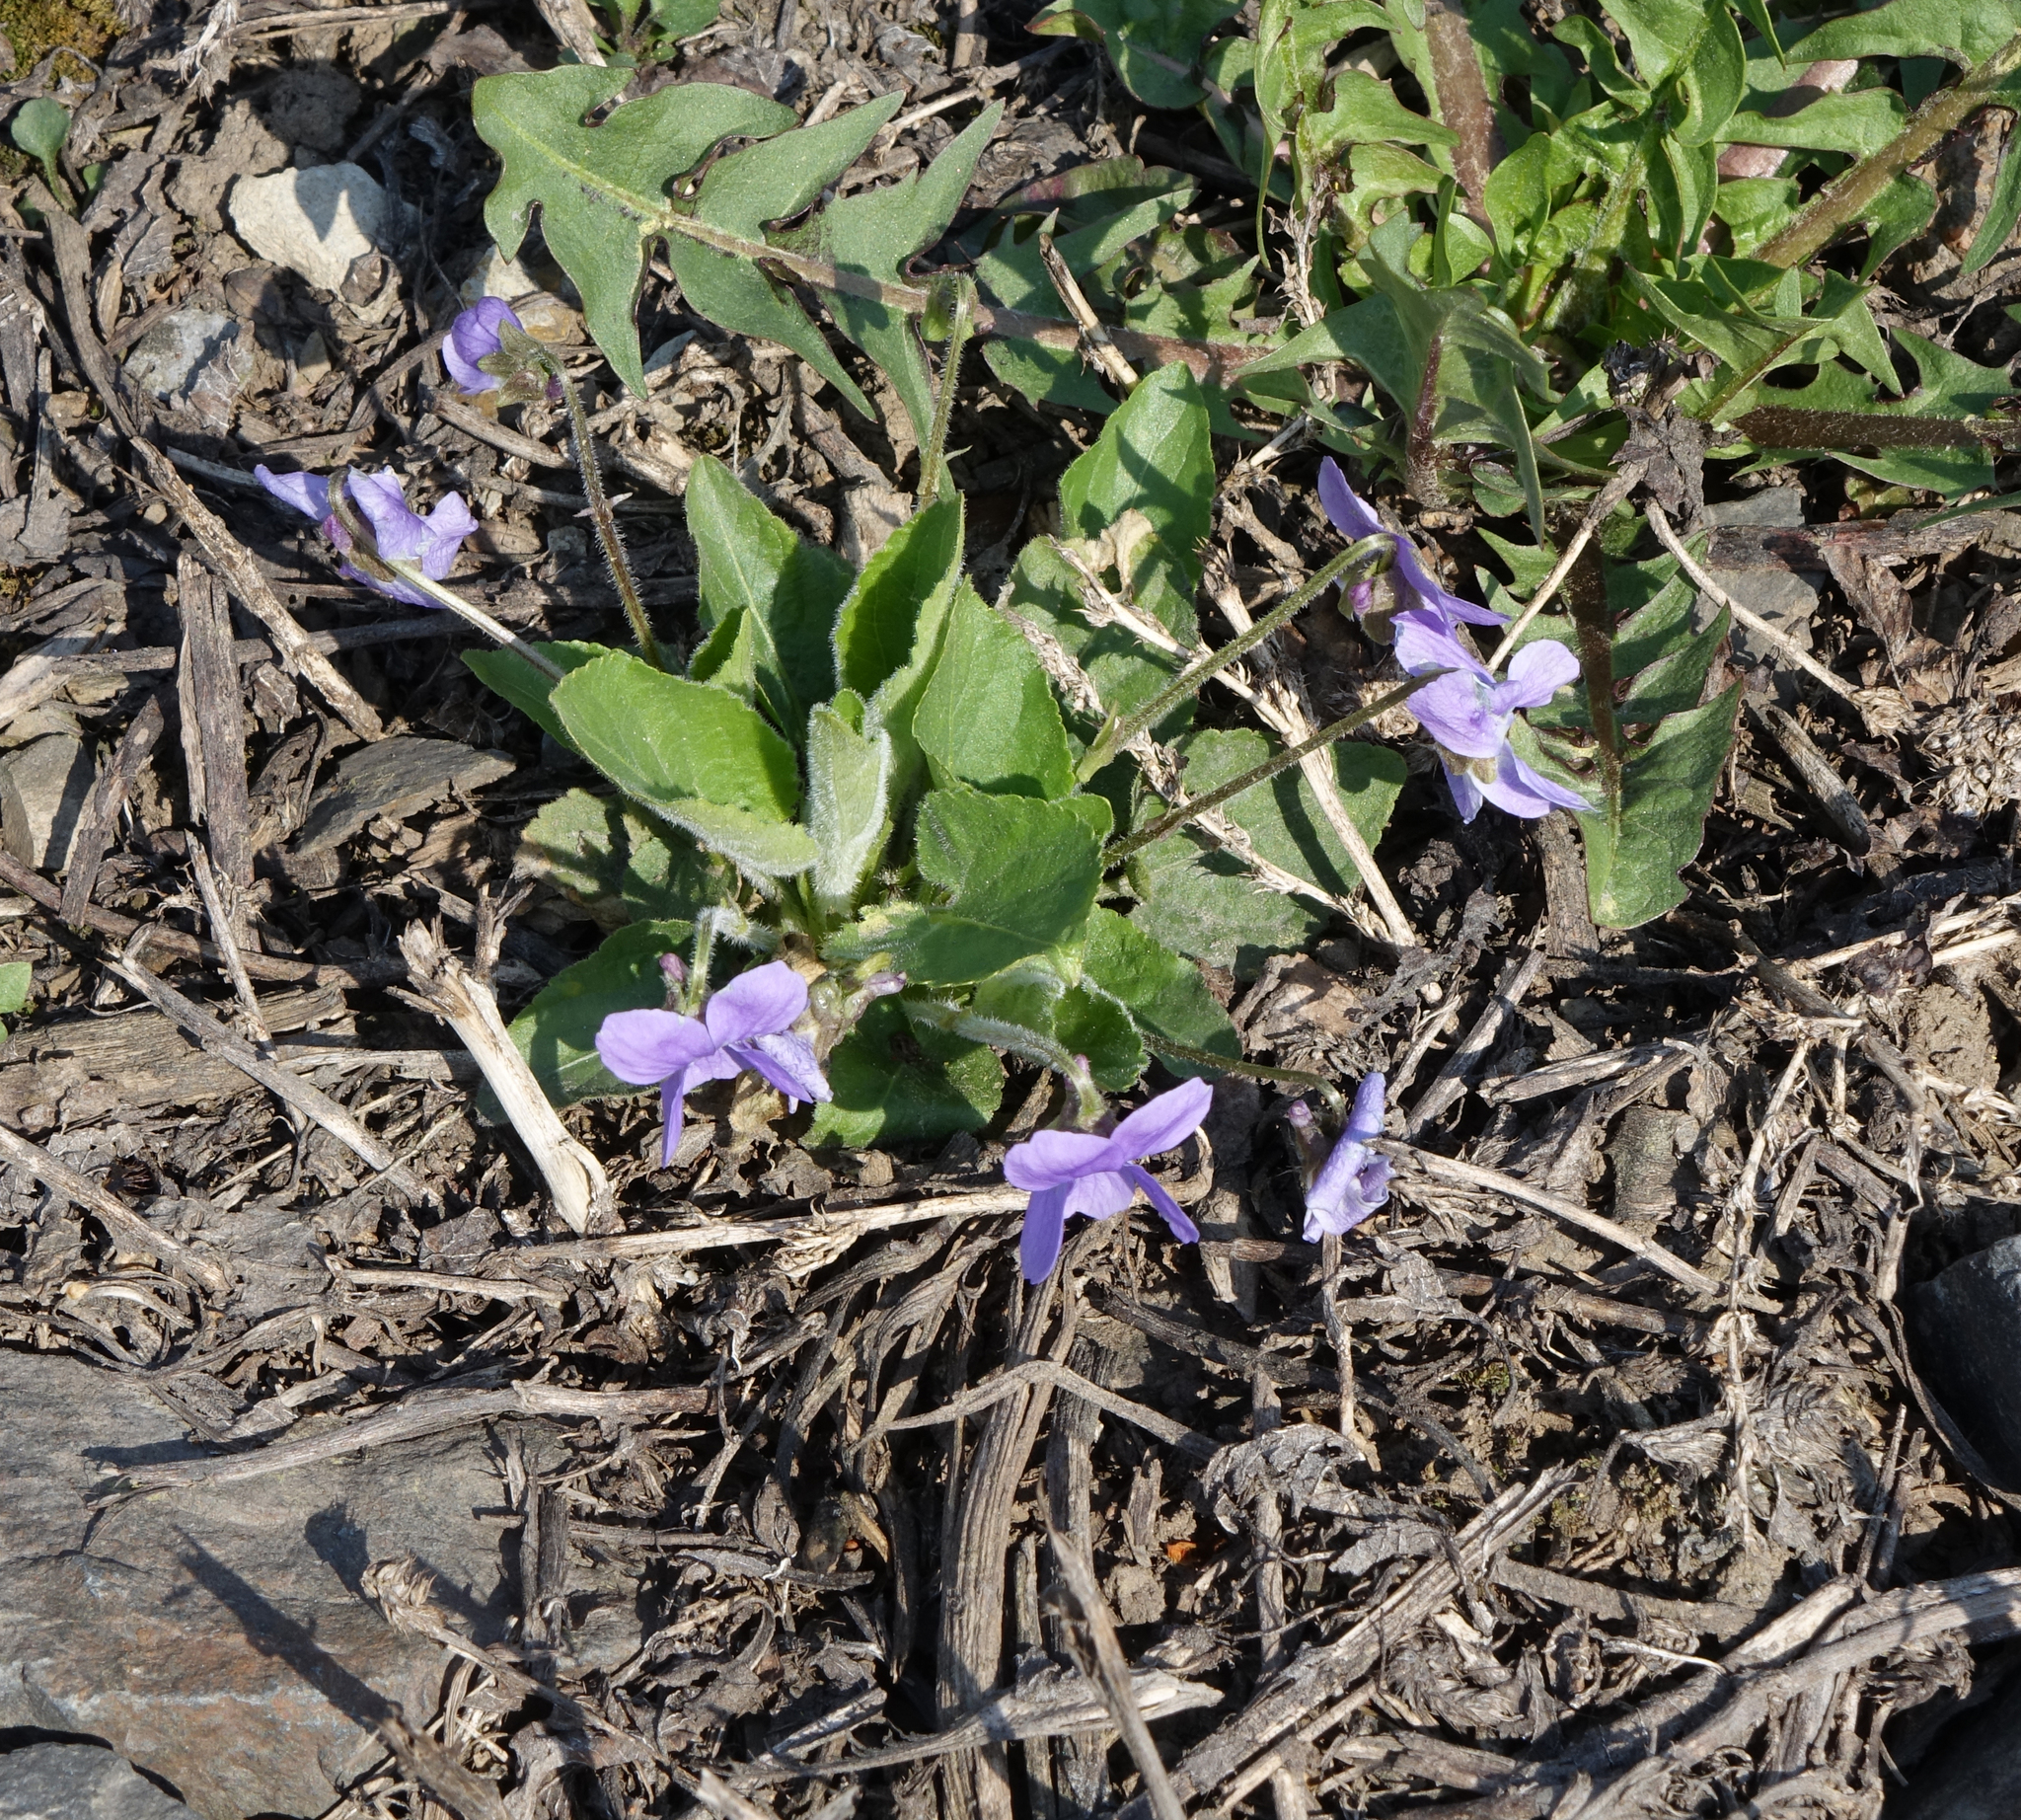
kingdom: Plantae
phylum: Tracheophyta
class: Magnoliopsida
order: Malpighiales
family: Violaceae
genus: Viola
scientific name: Viola hirta
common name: Hairy violet
